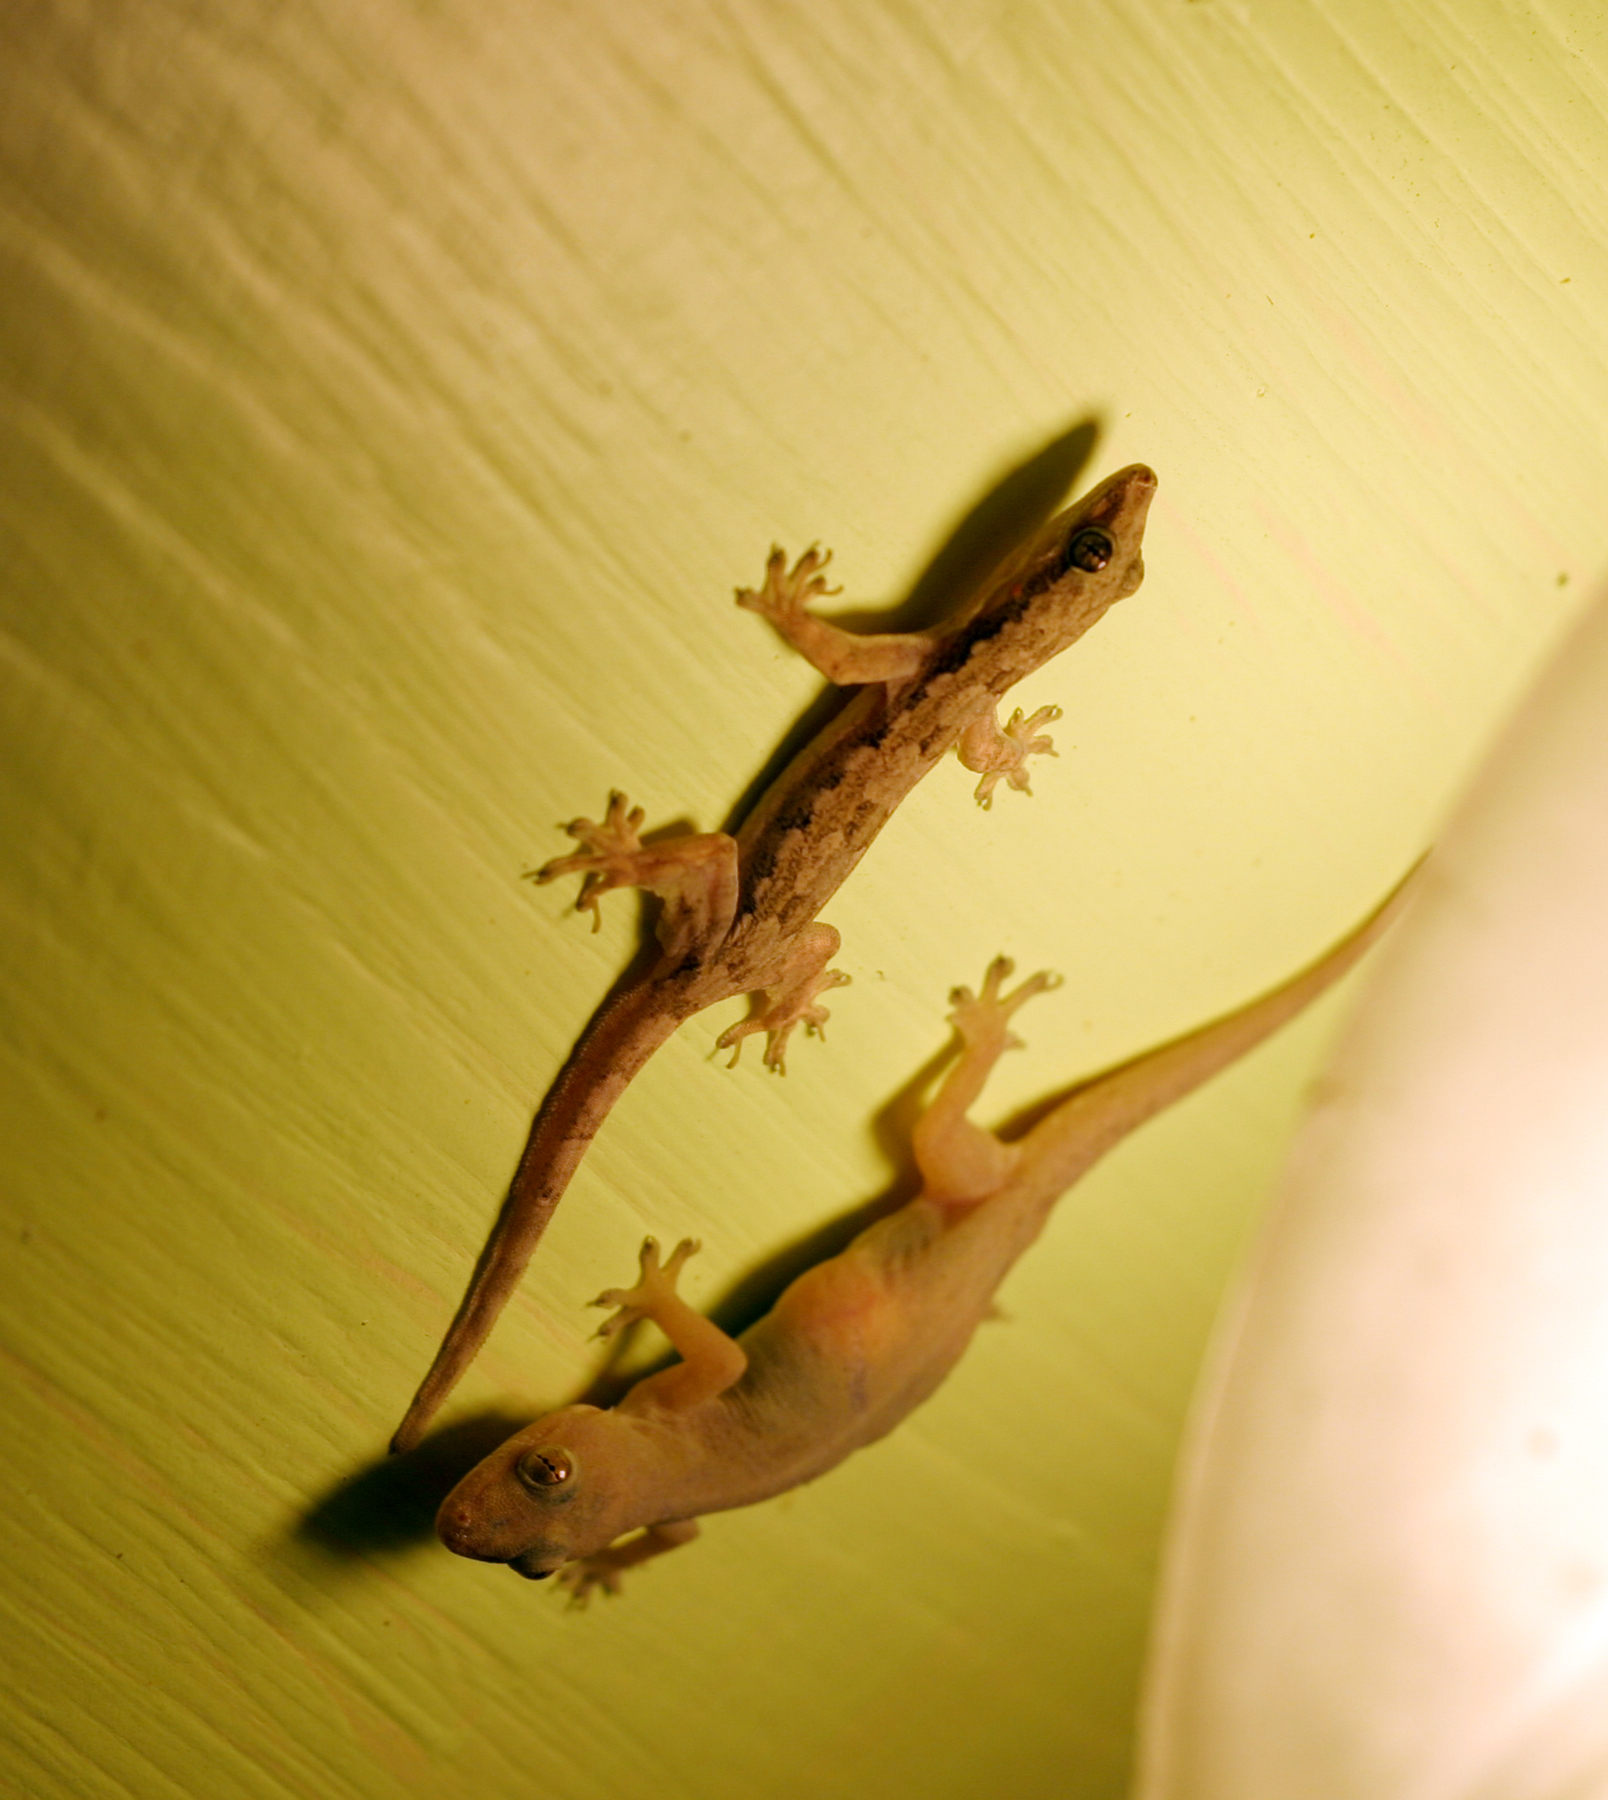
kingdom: Animalia
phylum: Chordata
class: Squamata
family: Gekkonidae
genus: Hemidactylus
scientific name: Hemidactylus frenatus
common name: Common house gecko
